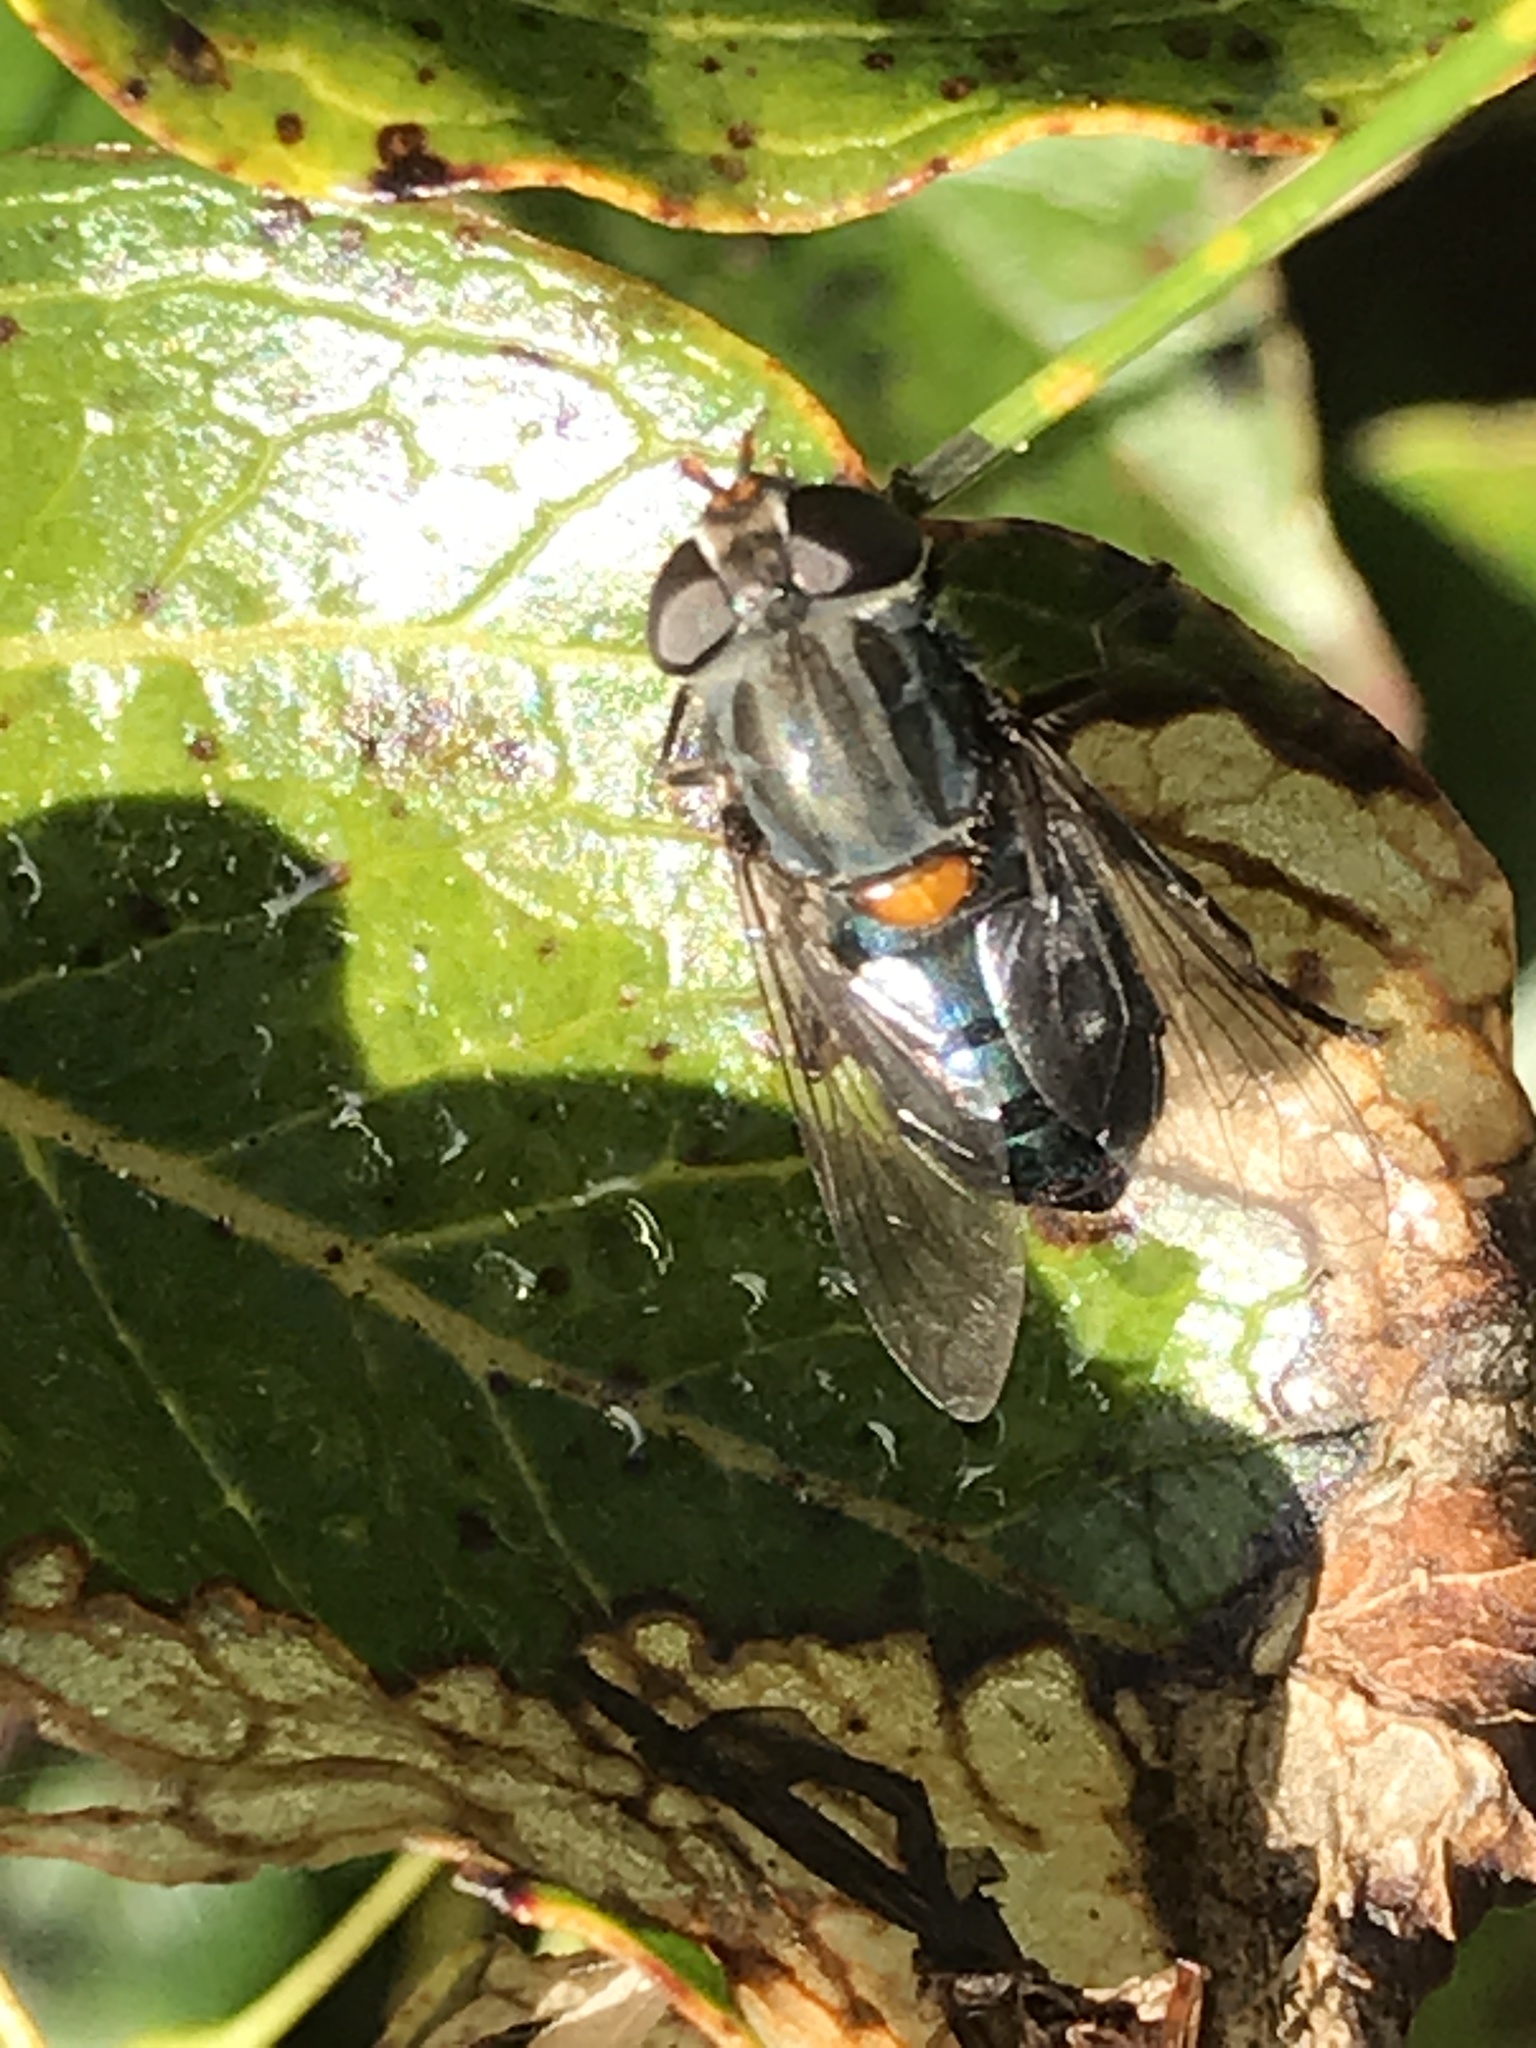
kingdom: Animalia
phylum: Arthropoda
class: Insecta
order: Diptera
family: Syrphidae
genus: Helophilus
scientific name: Helophilus hochstetteri
